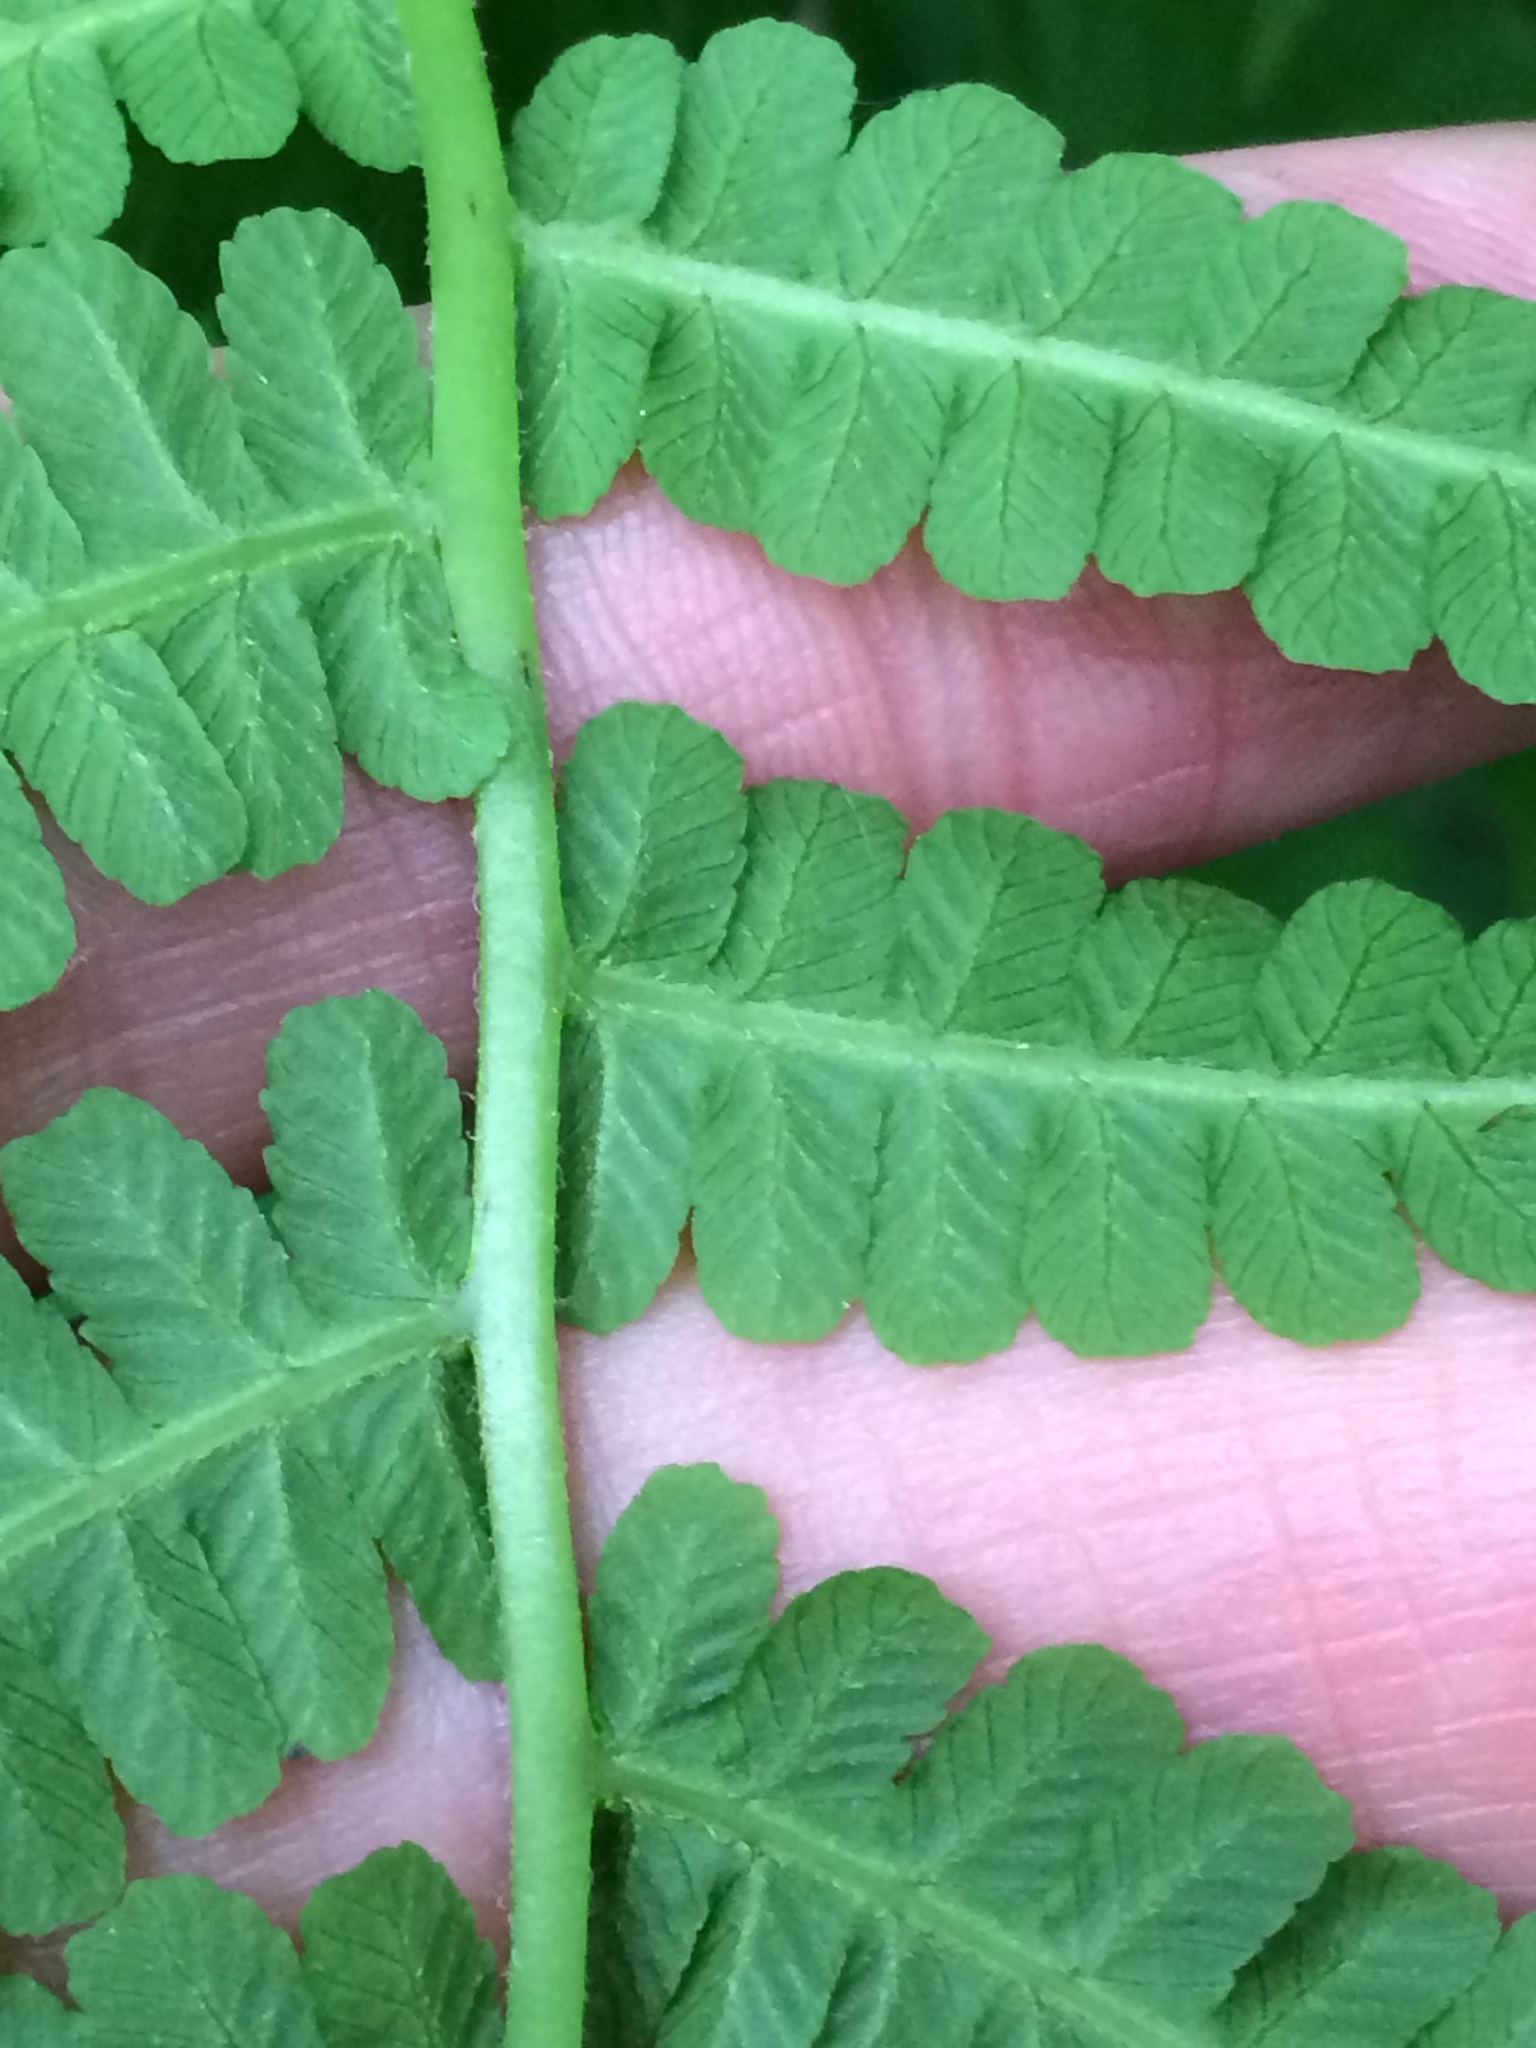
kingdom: Plantae
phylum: Tracheophyta
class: Polypodiopsida
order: Polypodiales
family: Athyriaceae
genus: Deparia
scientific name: Deparia acrostichoides
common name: Silver false spleenwort
